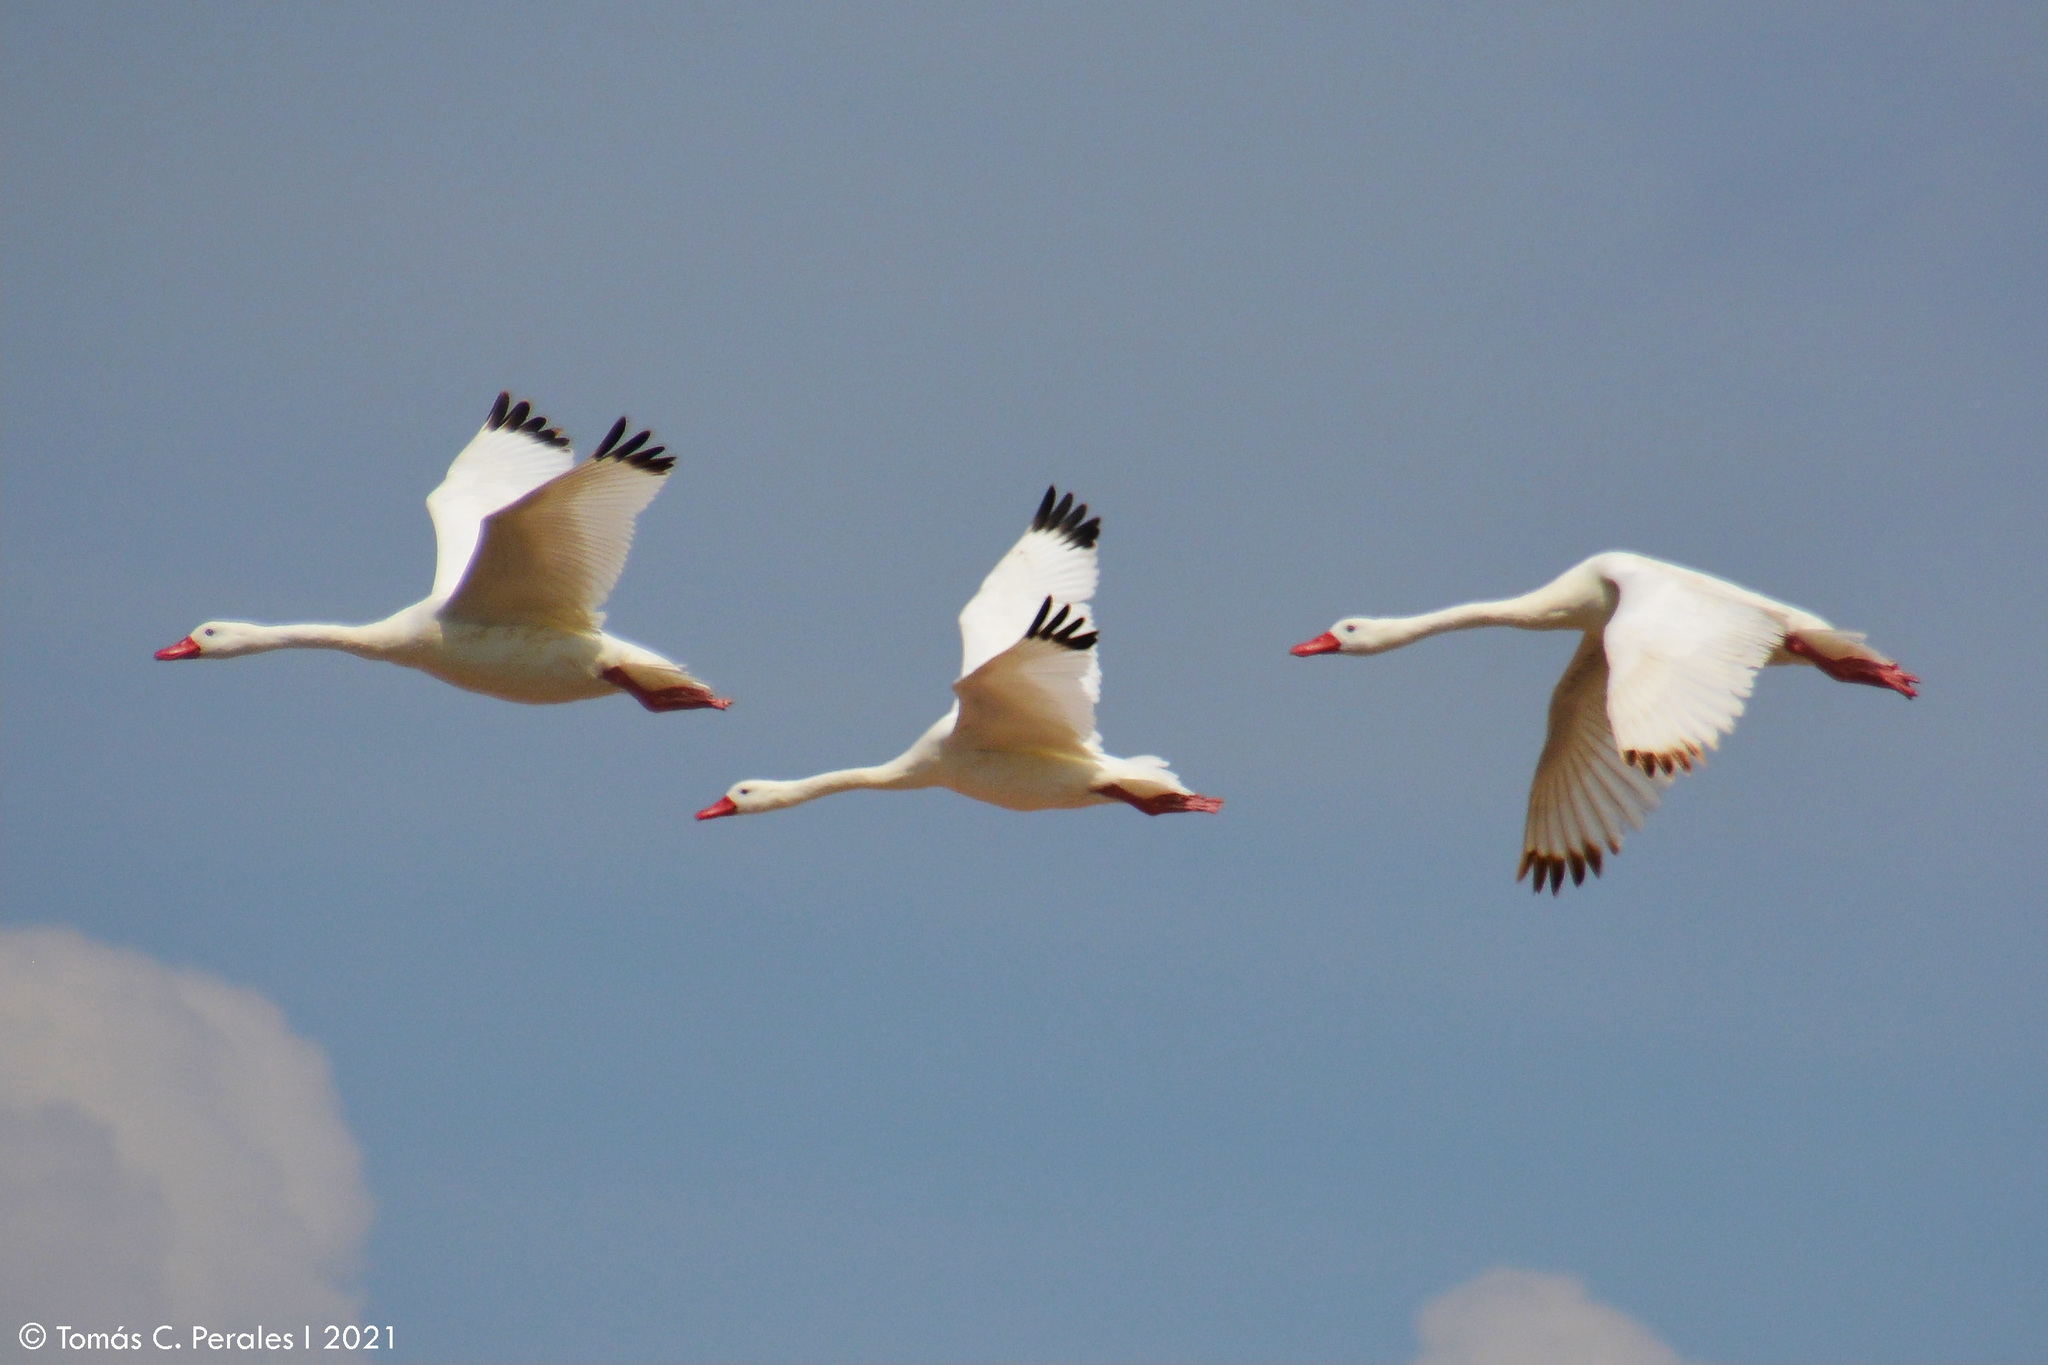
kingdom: Animalia
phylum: Chordata
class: Aves
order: Anseriformes
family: Anatidae
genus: Coscoroba
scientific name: Coscoroba coscoroba
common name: Coscoroba swan
